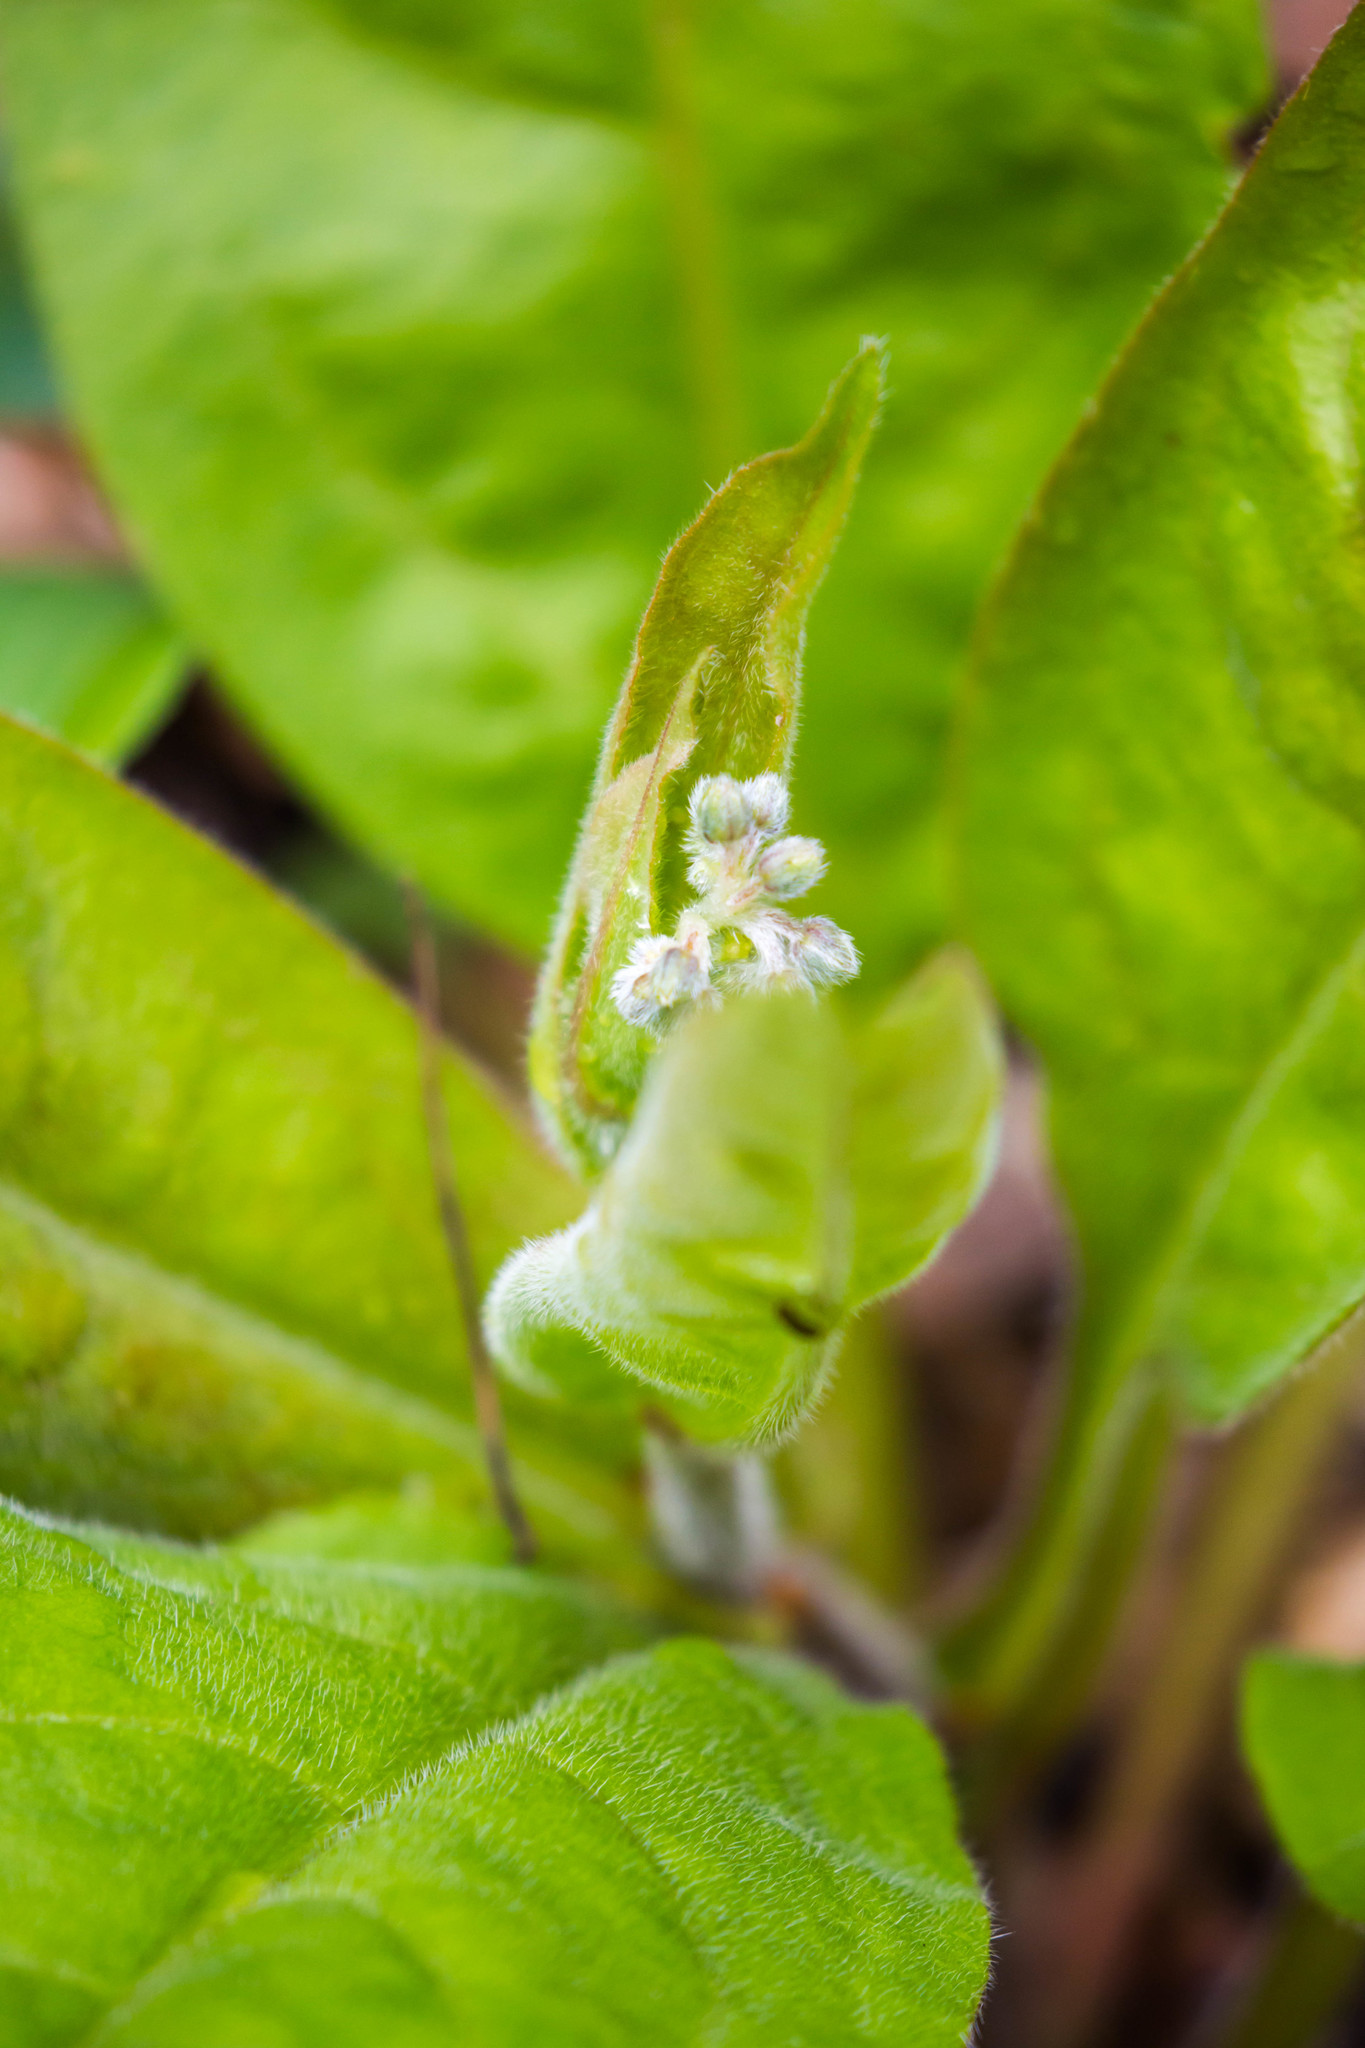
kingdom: Plantae
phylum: Tracheophyta
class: Magnoliopsida
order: Boraginales
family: Boraginaceae
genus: Andersonglossum
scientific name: Andersonglossum virginianum
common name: Wild comfrey
